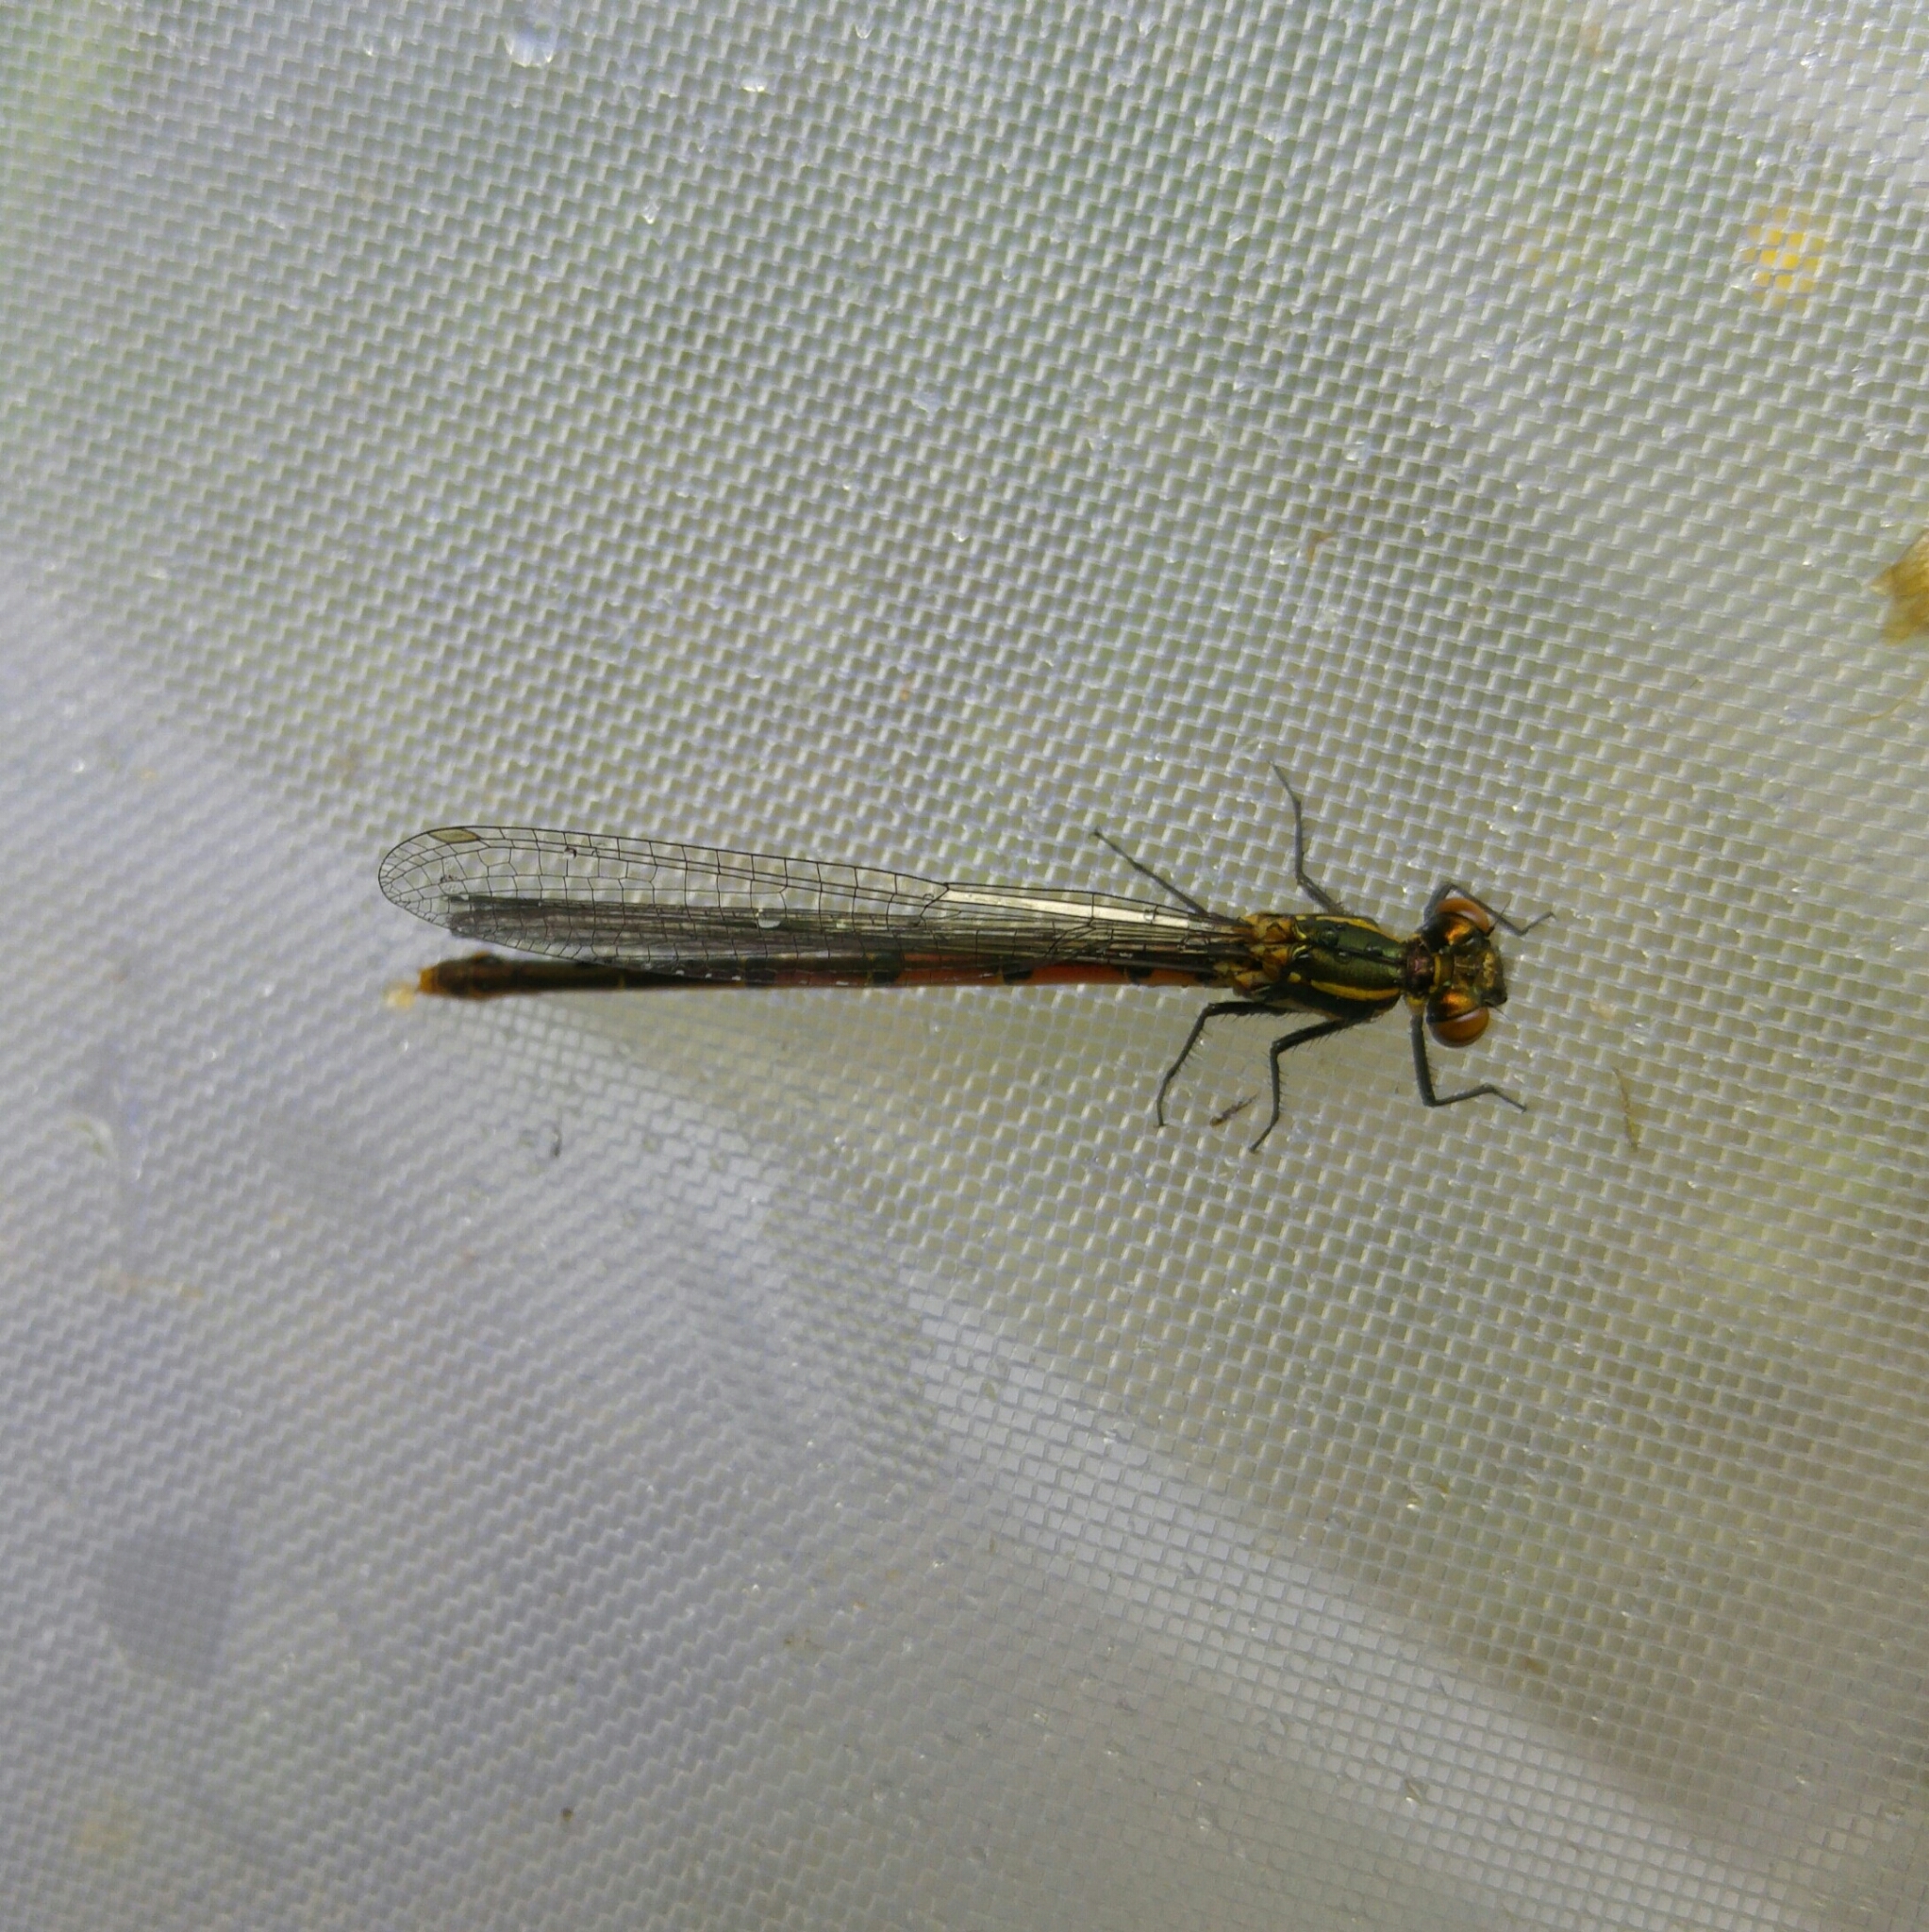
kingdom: Animalia
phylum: Arthropoda
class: Insecta
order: Odonata
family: Coenagrionidae
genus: Pyrrhosoma
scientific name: Pyrrhosoma nymphula
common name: Large red damsel
